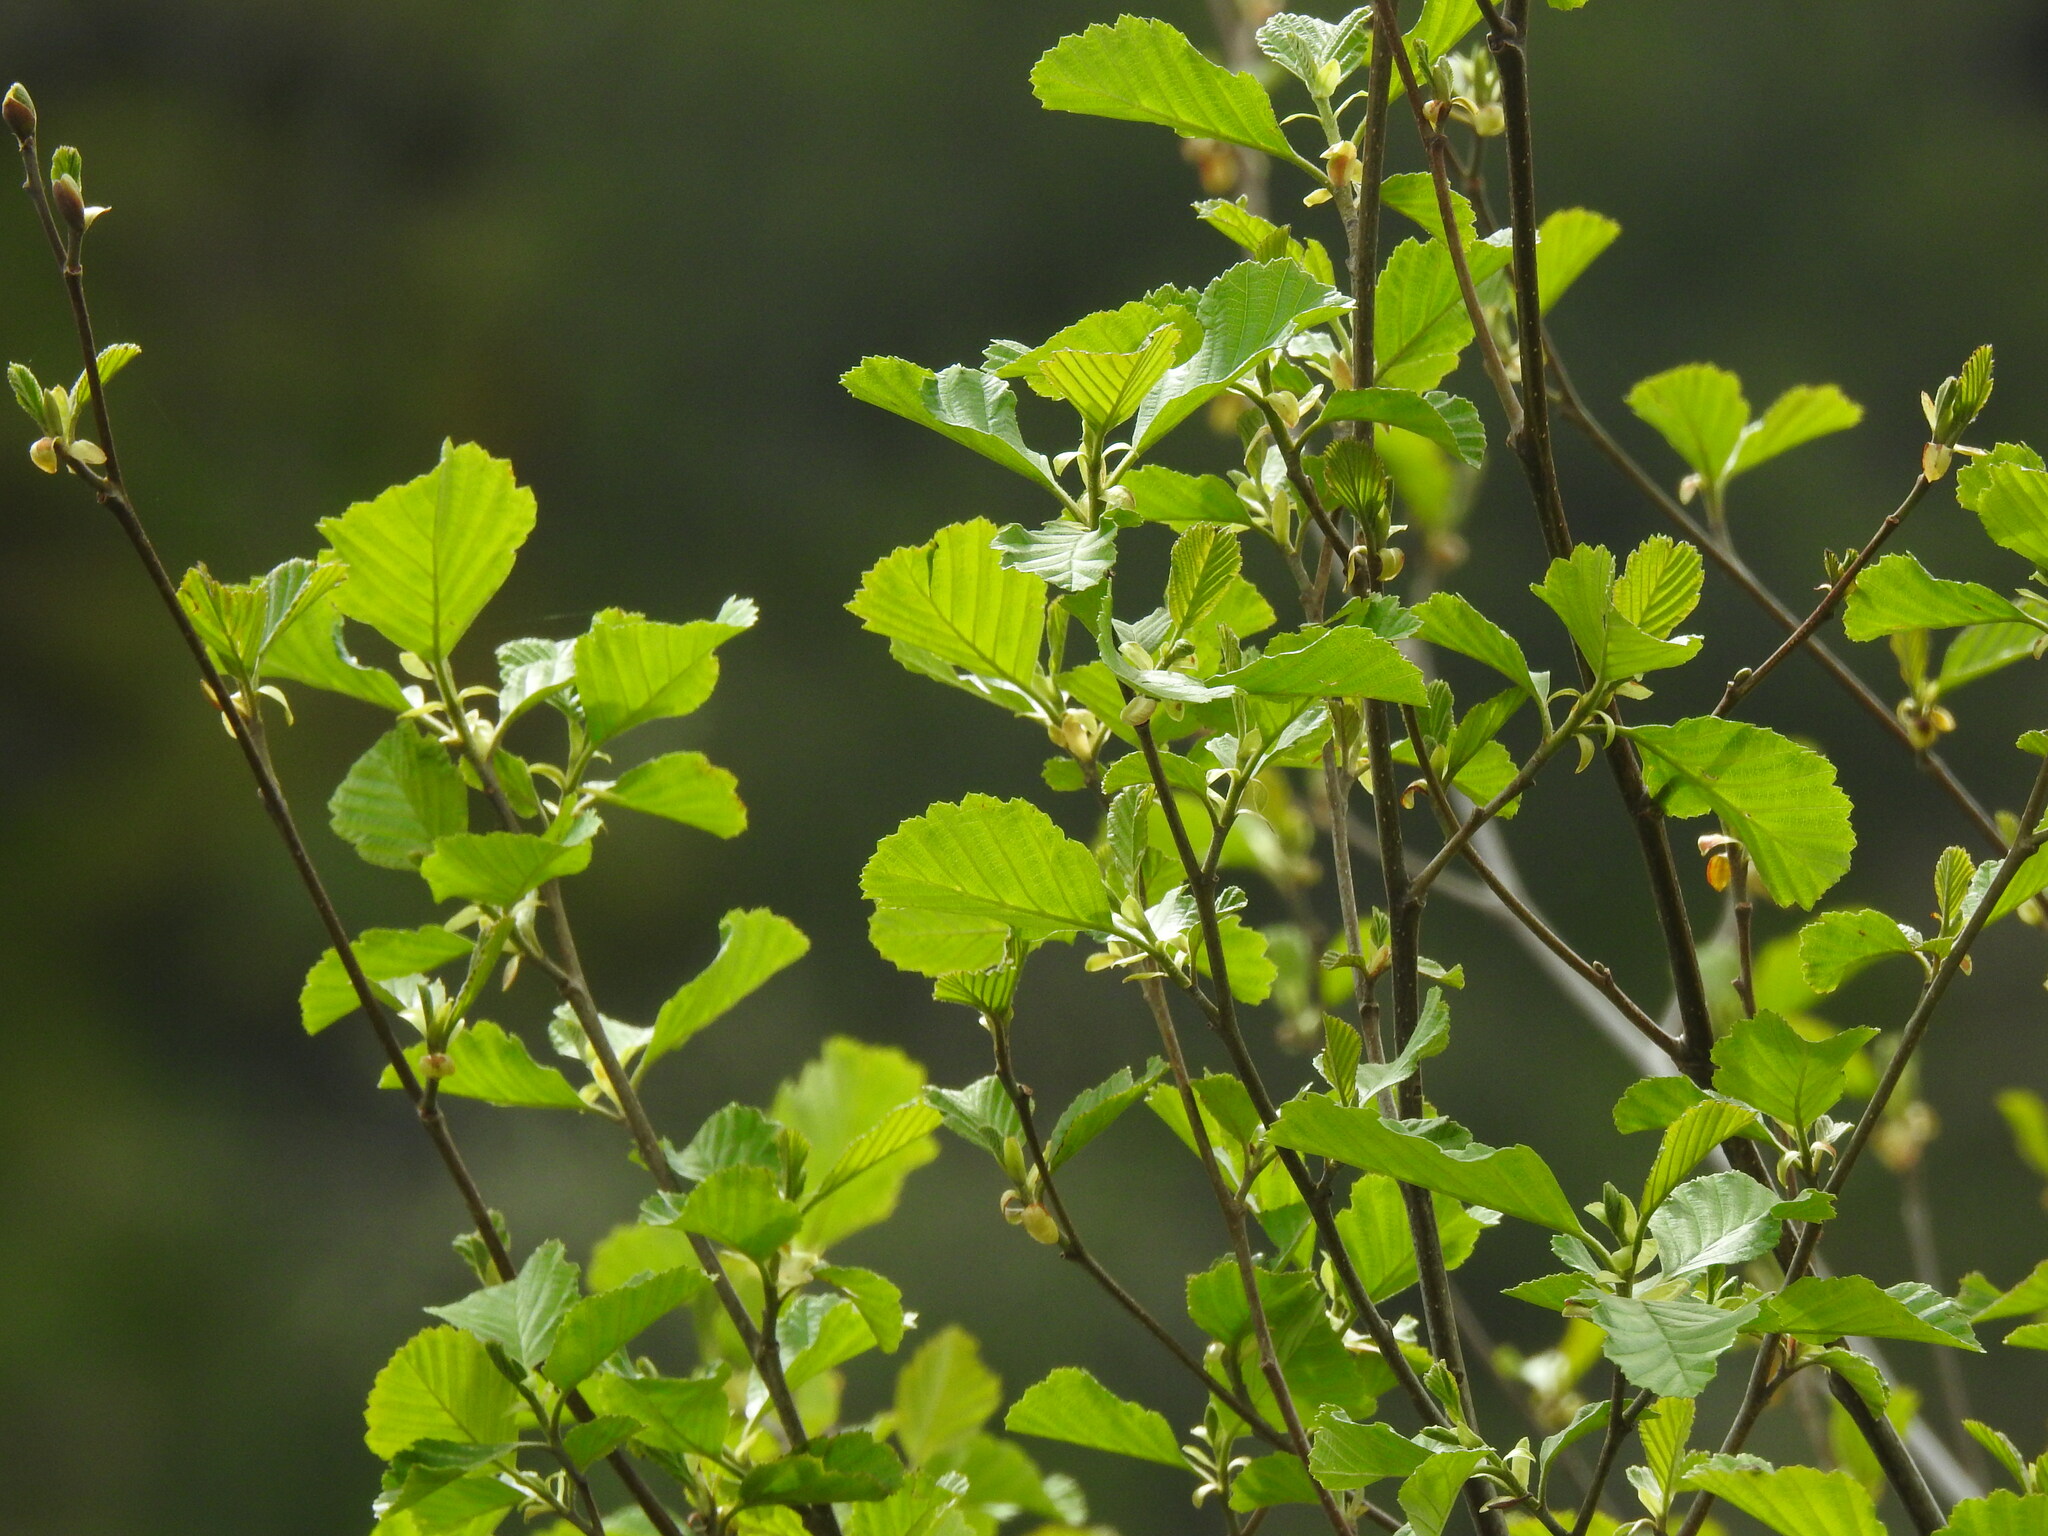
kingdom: Plantae
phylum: Tracheophyta
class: Magnoliopsida
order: Fagales
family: Betulaceae
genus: Alnus
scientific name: Alnus lusitanica
